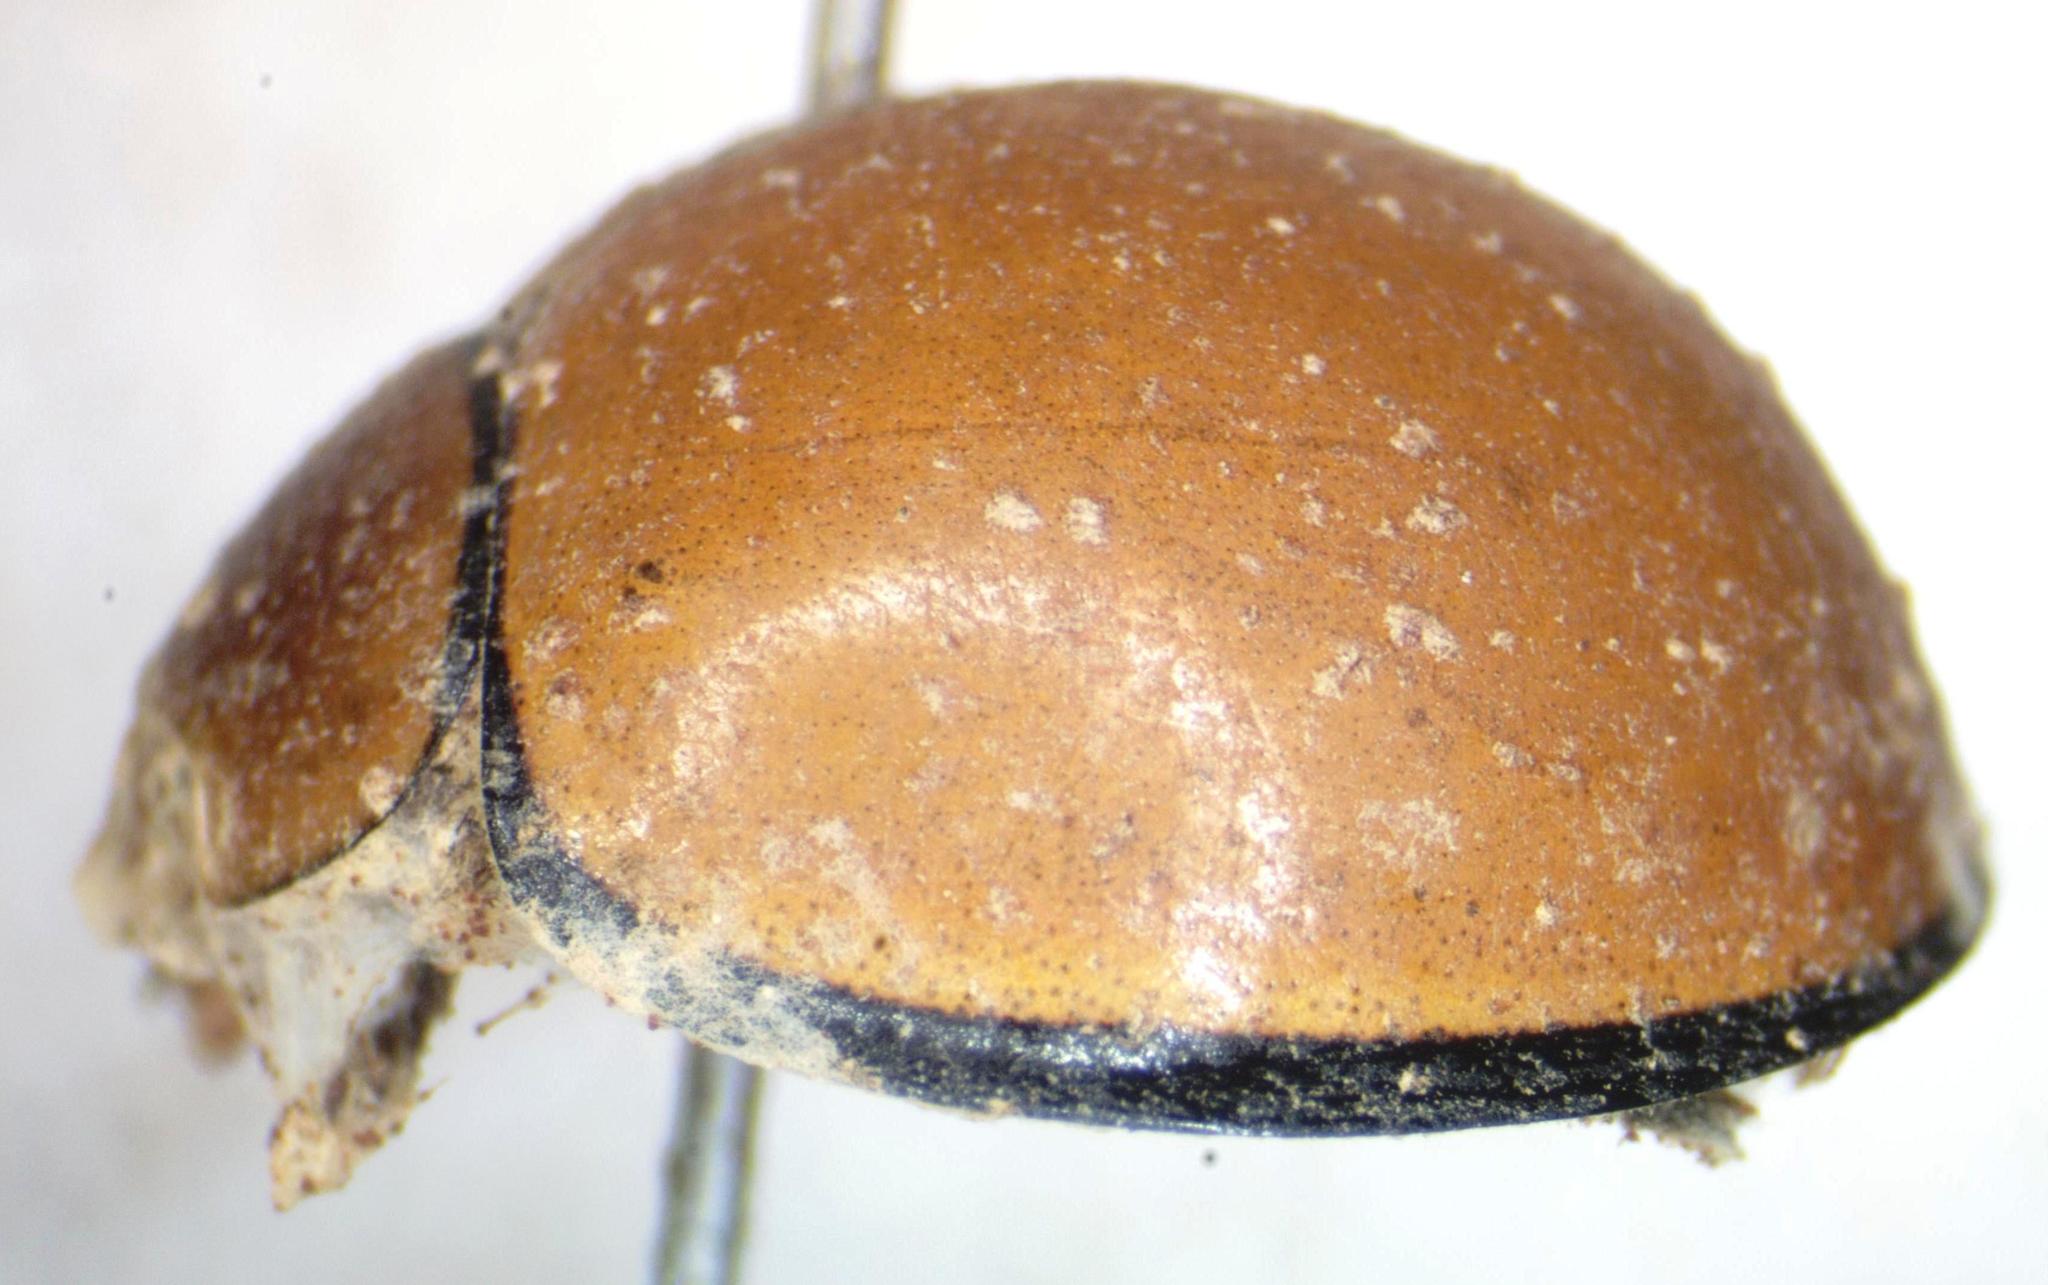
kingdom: Animalia
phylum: Arthropoda
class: Insecta
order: Coleoptera
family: Coccinellidae
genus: Neda
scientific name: Neda
